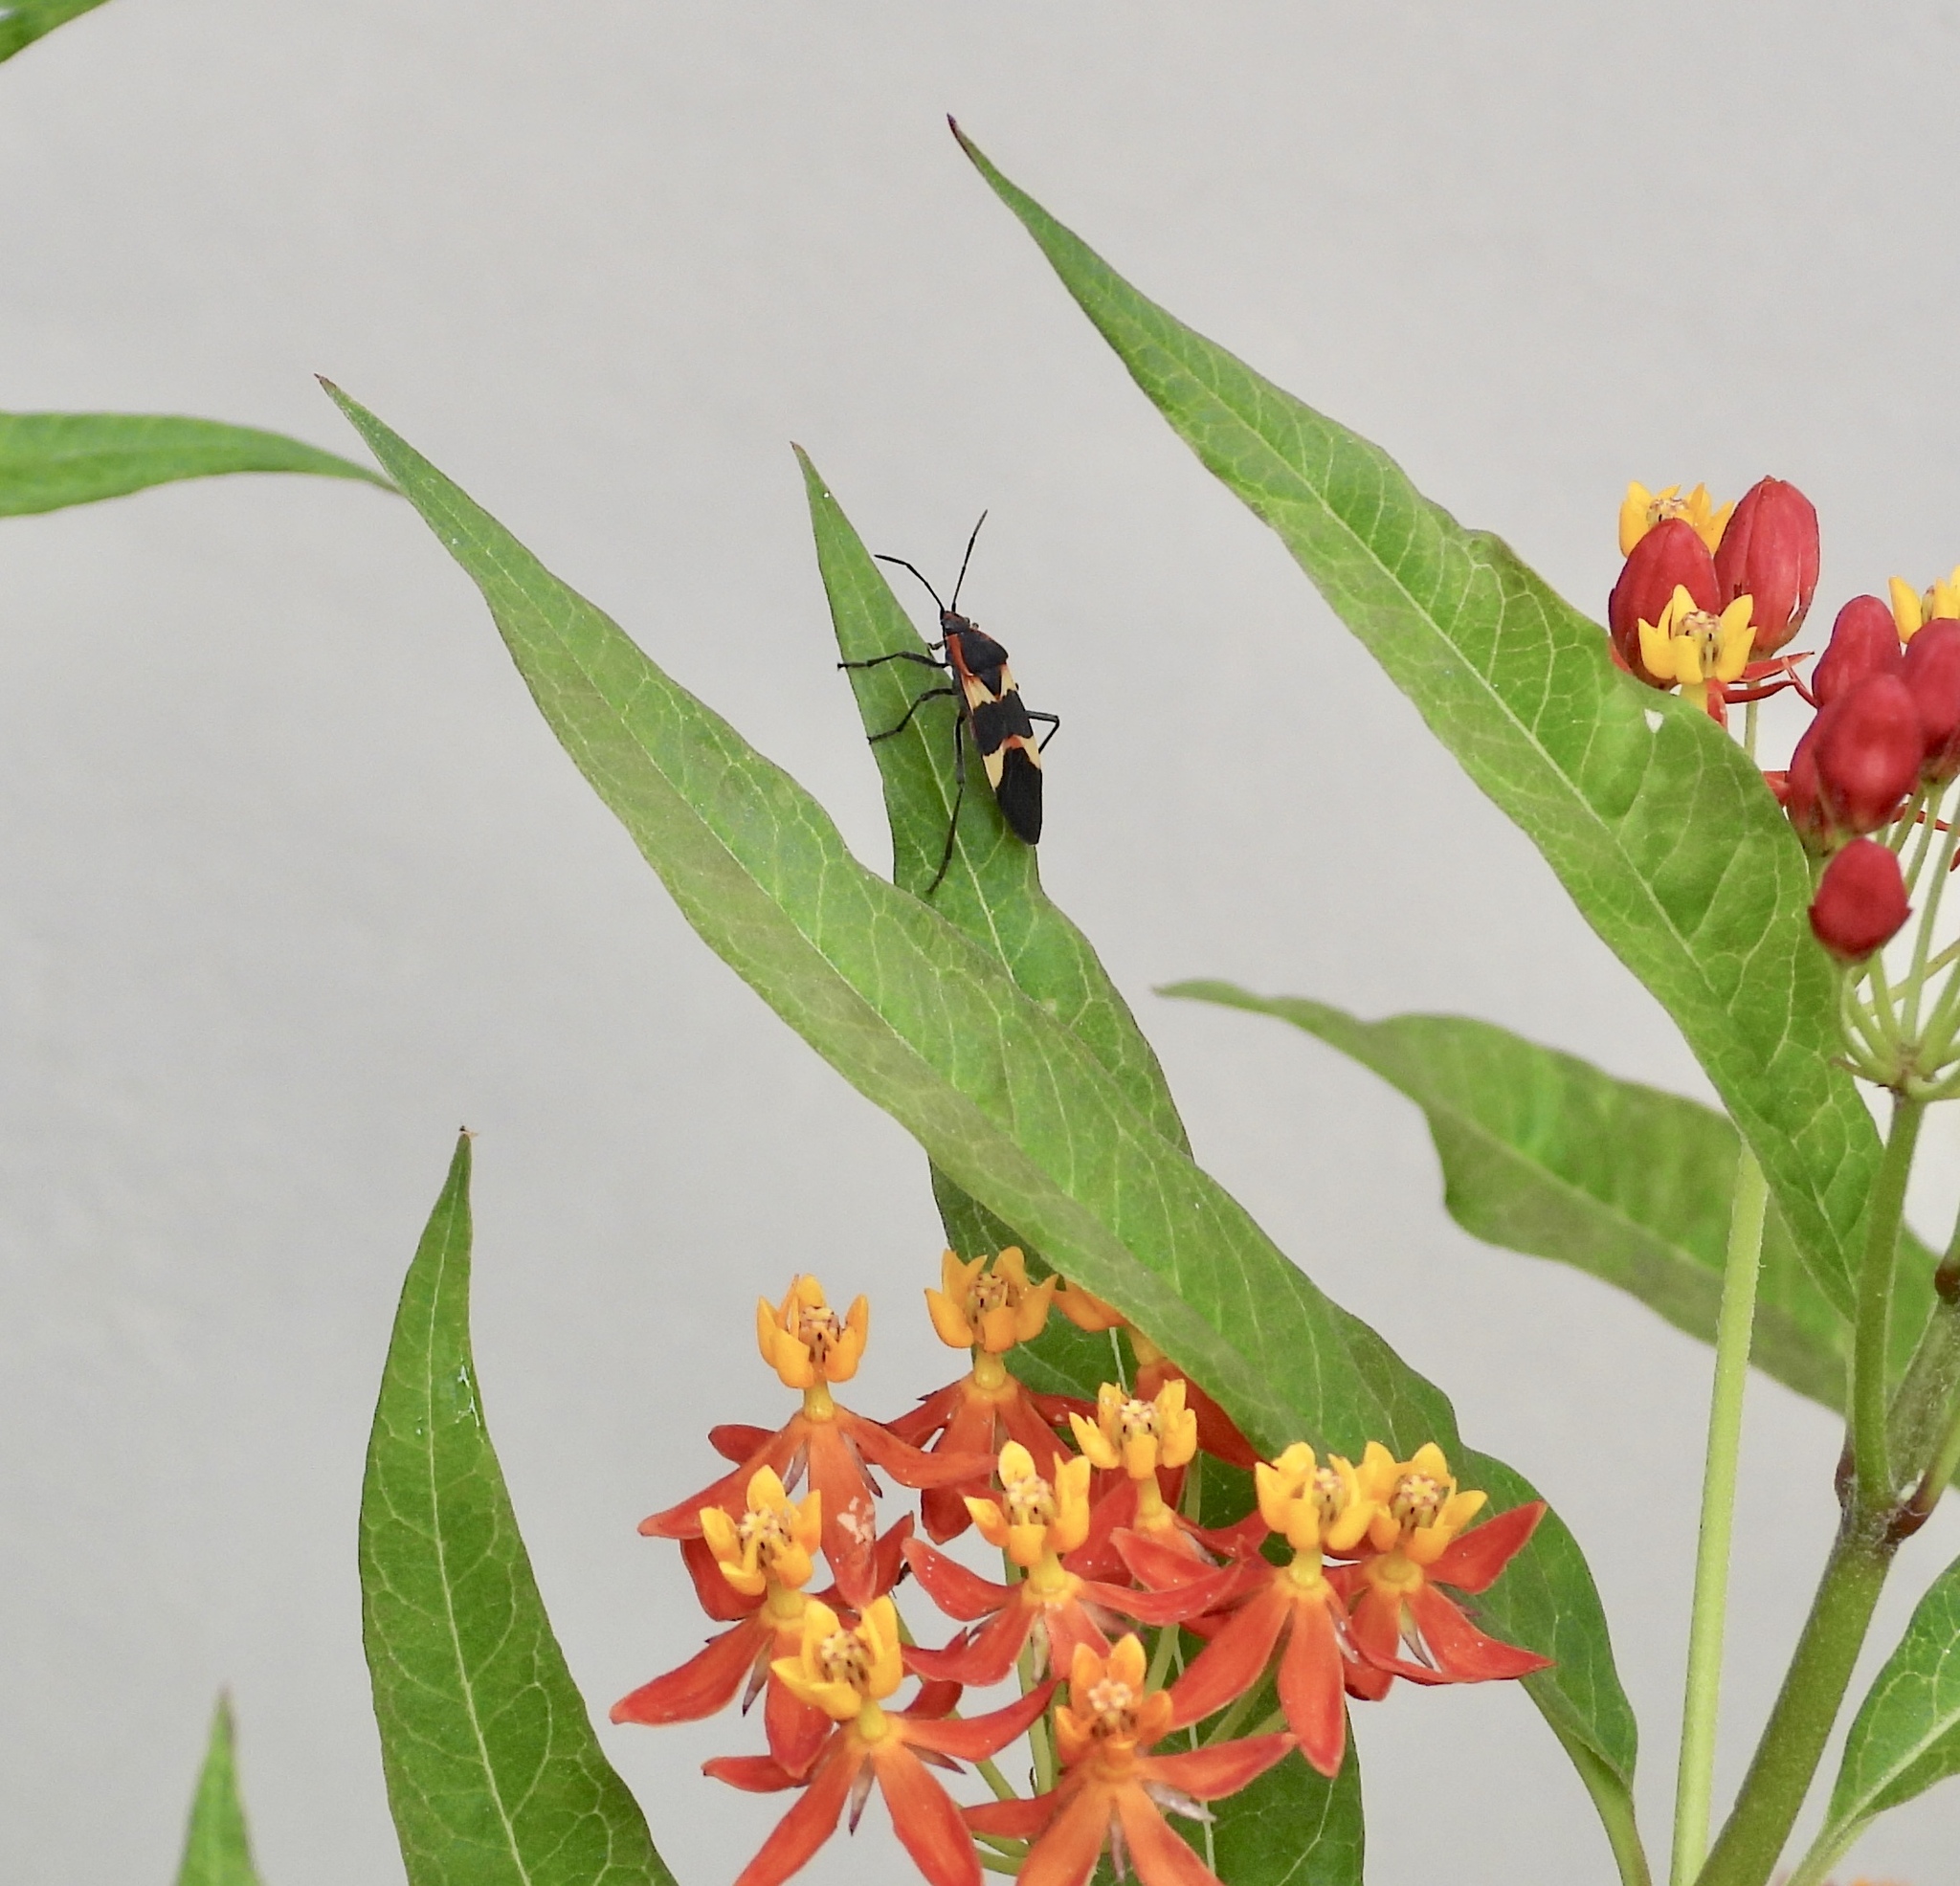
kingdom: Animalia
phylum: Arthropoda
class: Insecta
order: Hemiptera
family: Lygaeidae
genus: Oncopeltus
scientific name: Oncopeltus fasciatus
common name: Large milkweed bug
